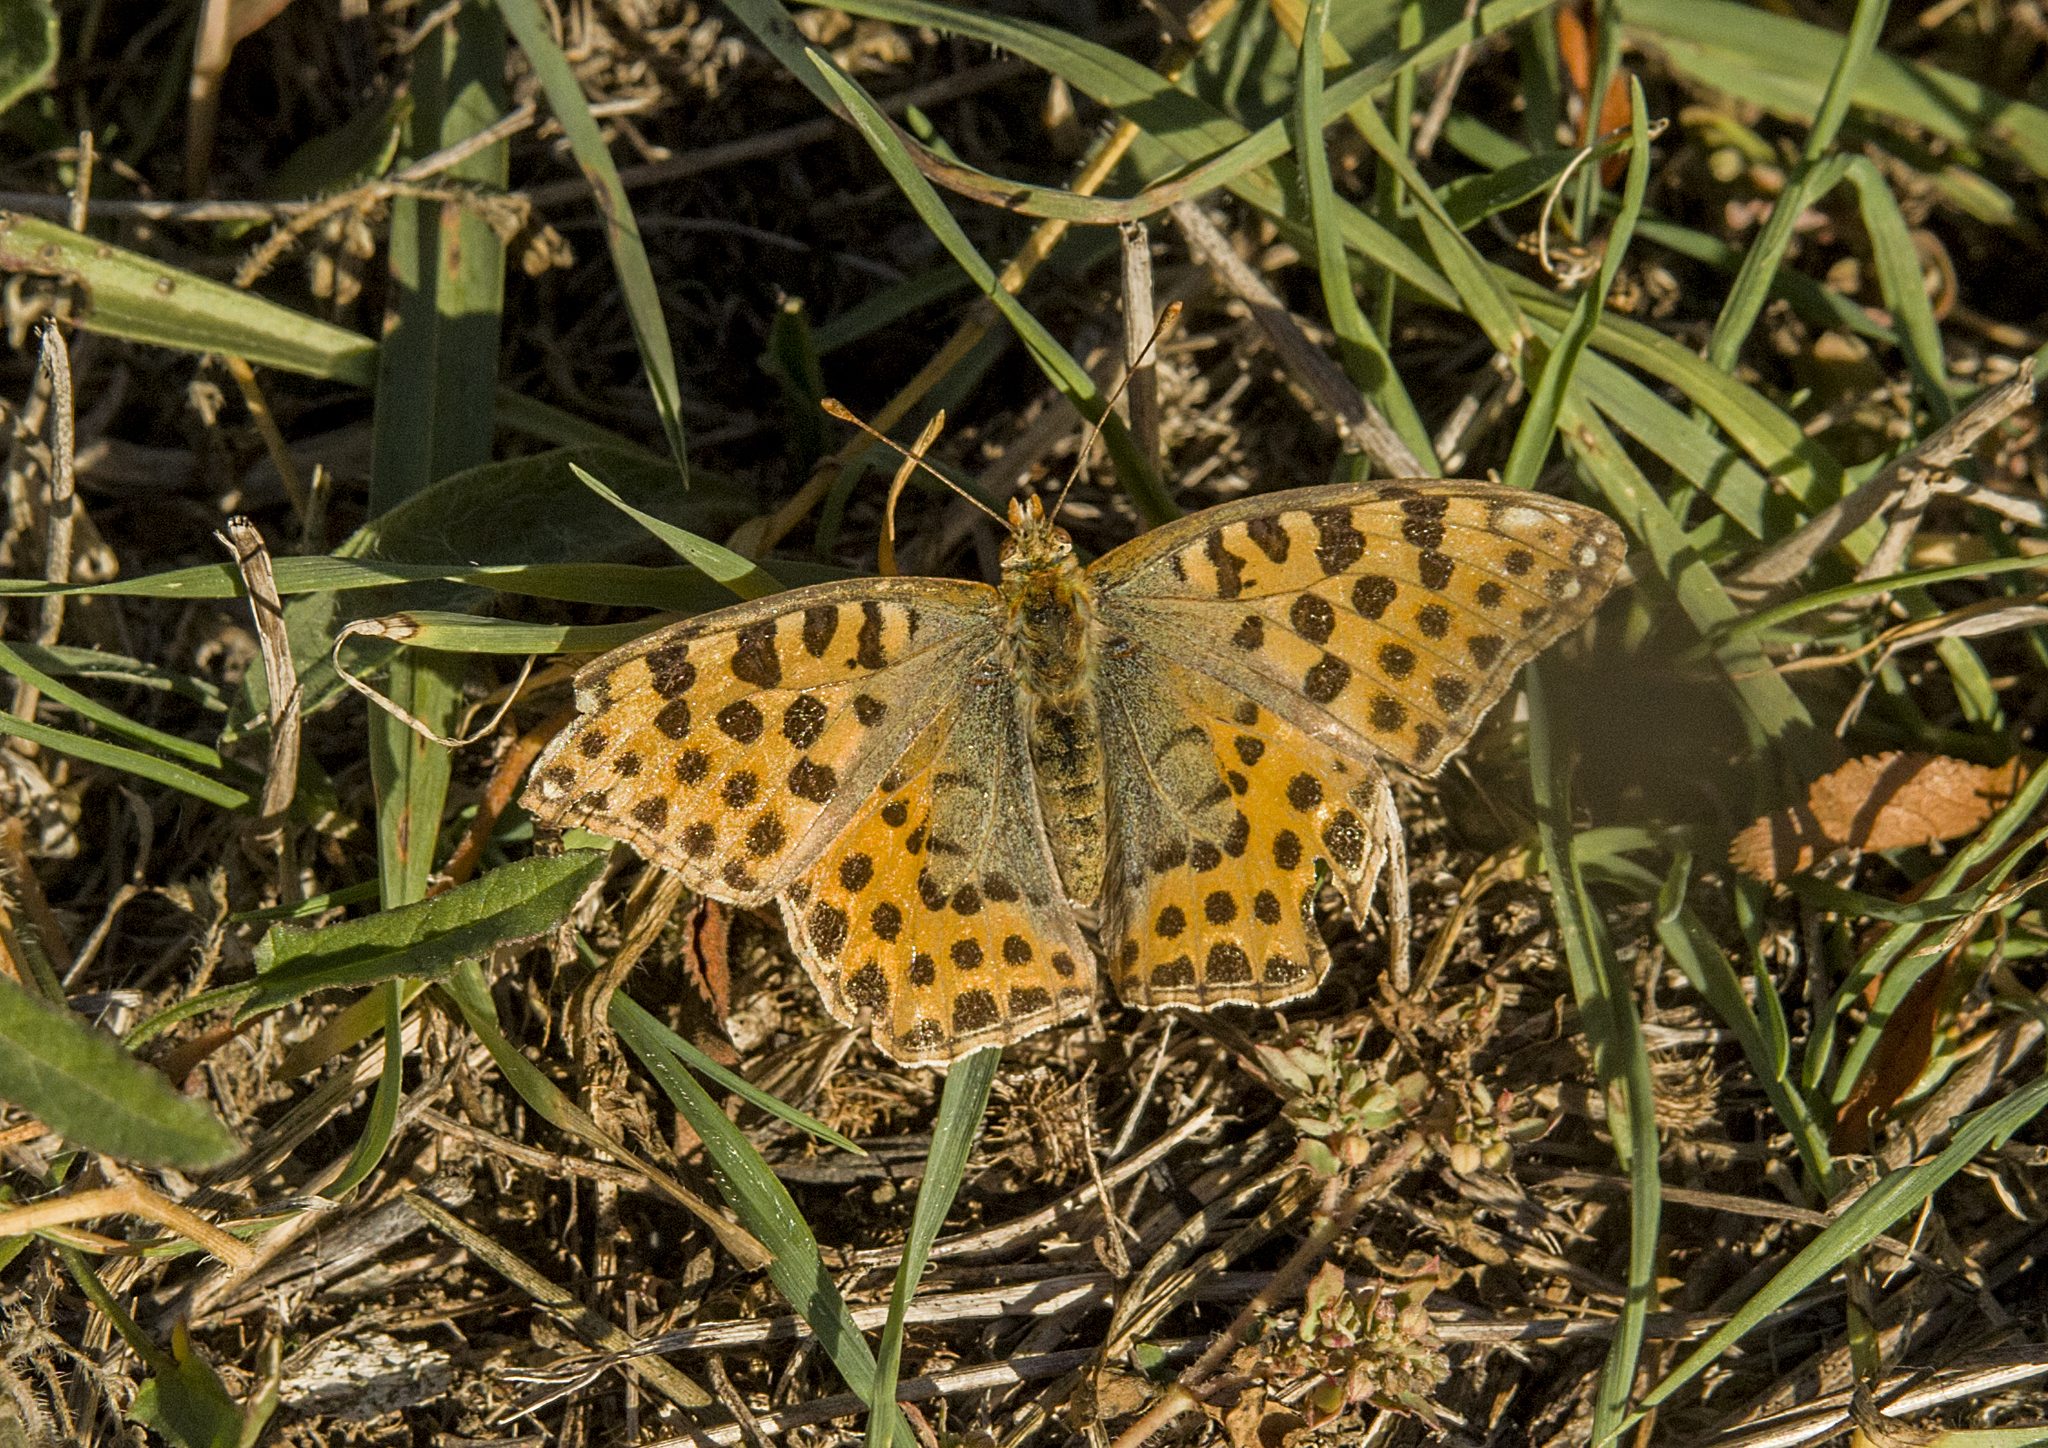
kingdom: Animalia
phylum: Arthropoda
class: Insecta
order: Lepidoptera
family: Nymphalidae
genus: Issoria
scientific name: Issoria lathonia
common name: Queen of spain fritillary
